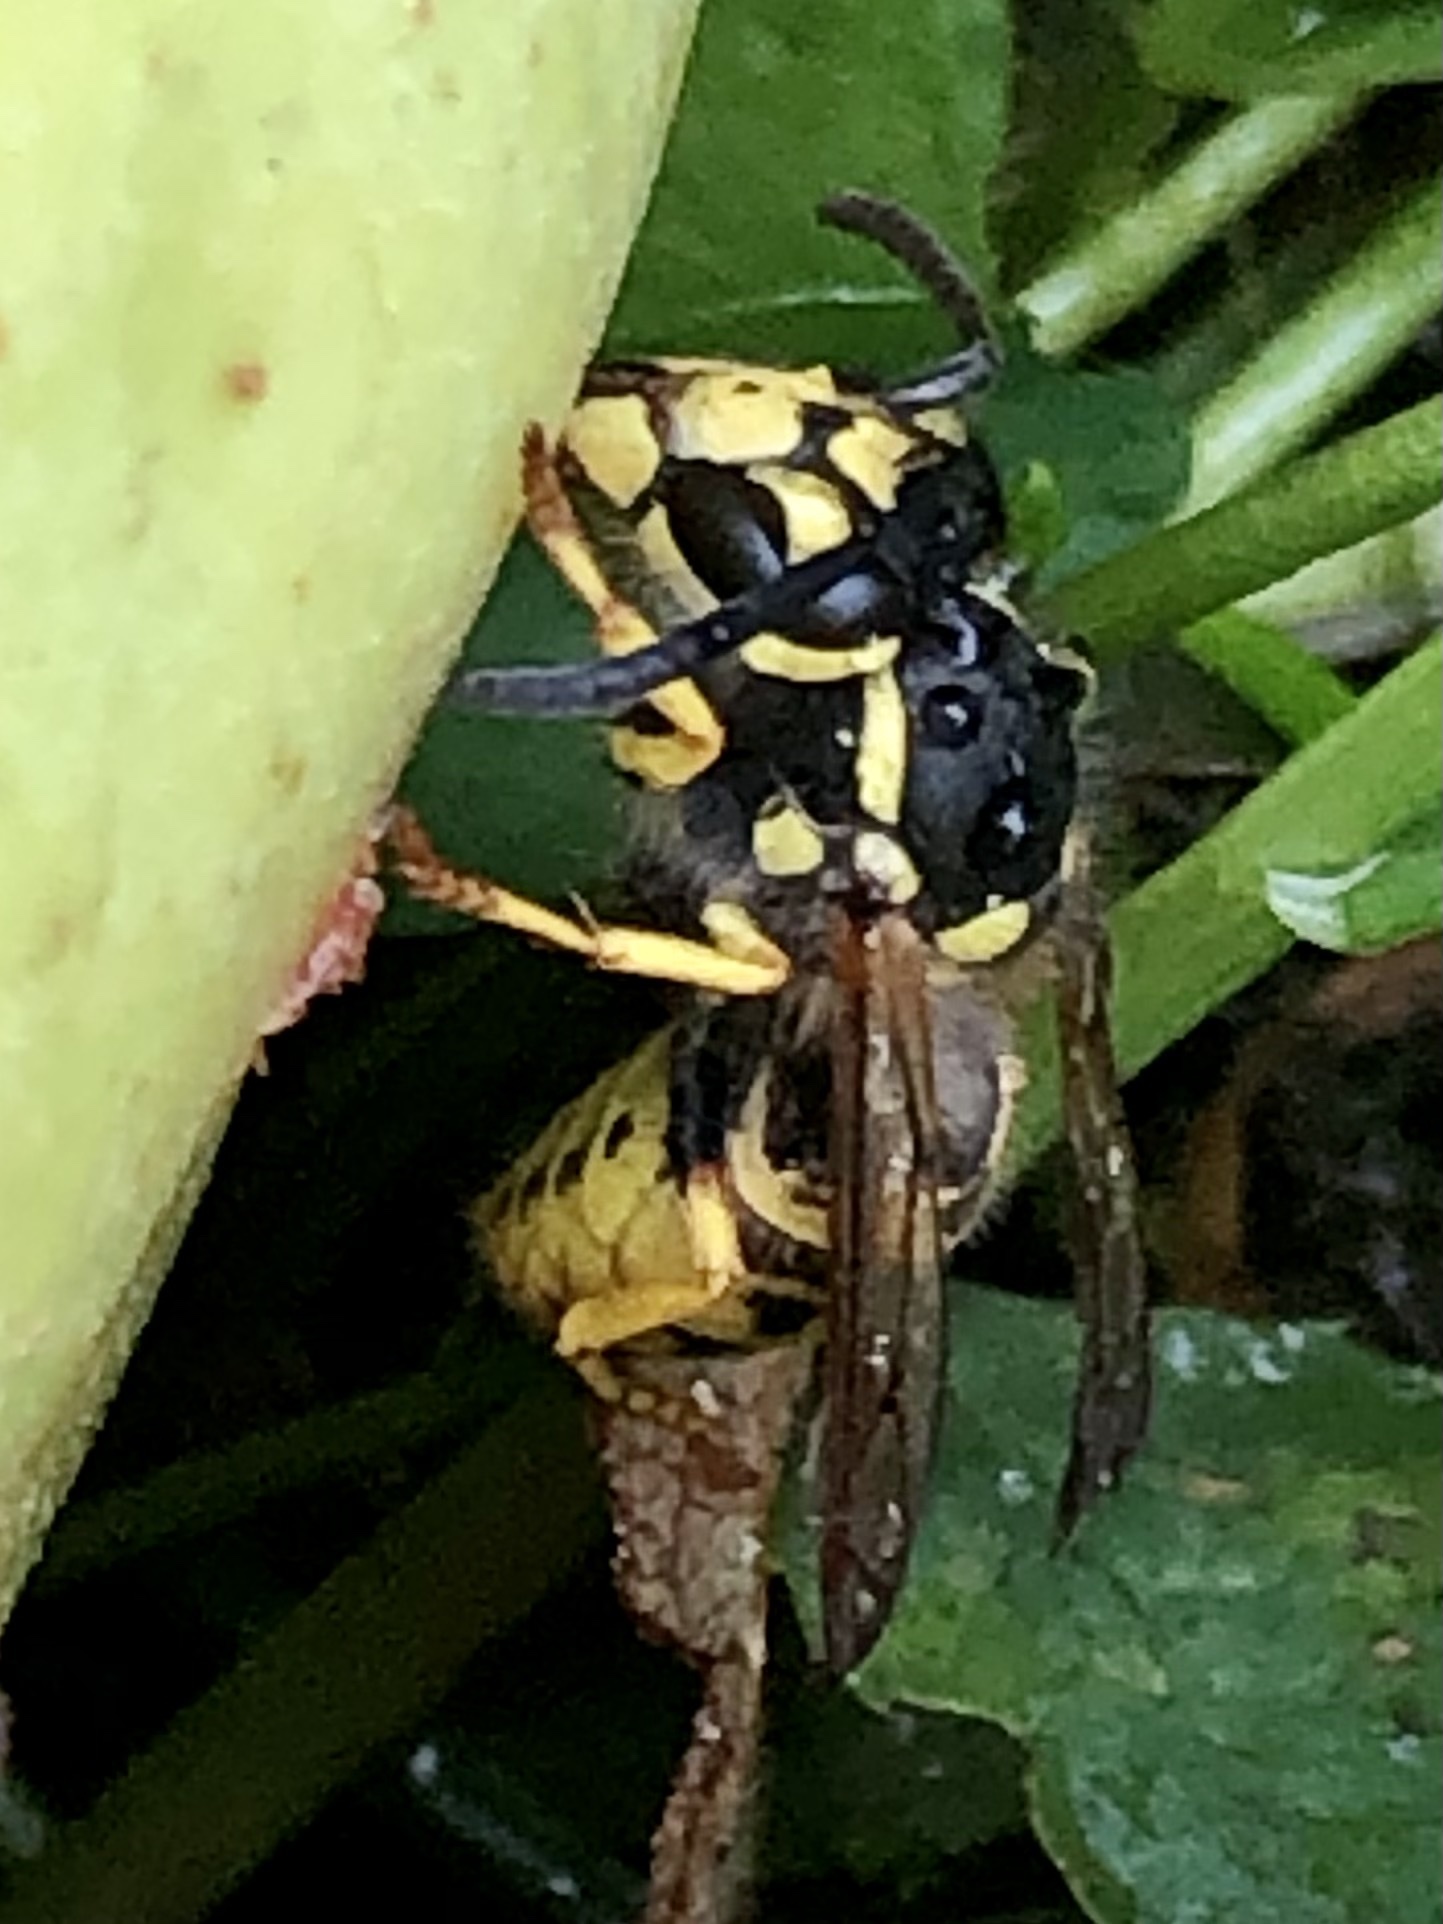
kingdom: Animalia
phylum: Arthropoda
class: Insecta
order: Hymenoptera
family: Vespidae
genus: Vespula
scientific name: Vespula germanica
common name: German wasp
